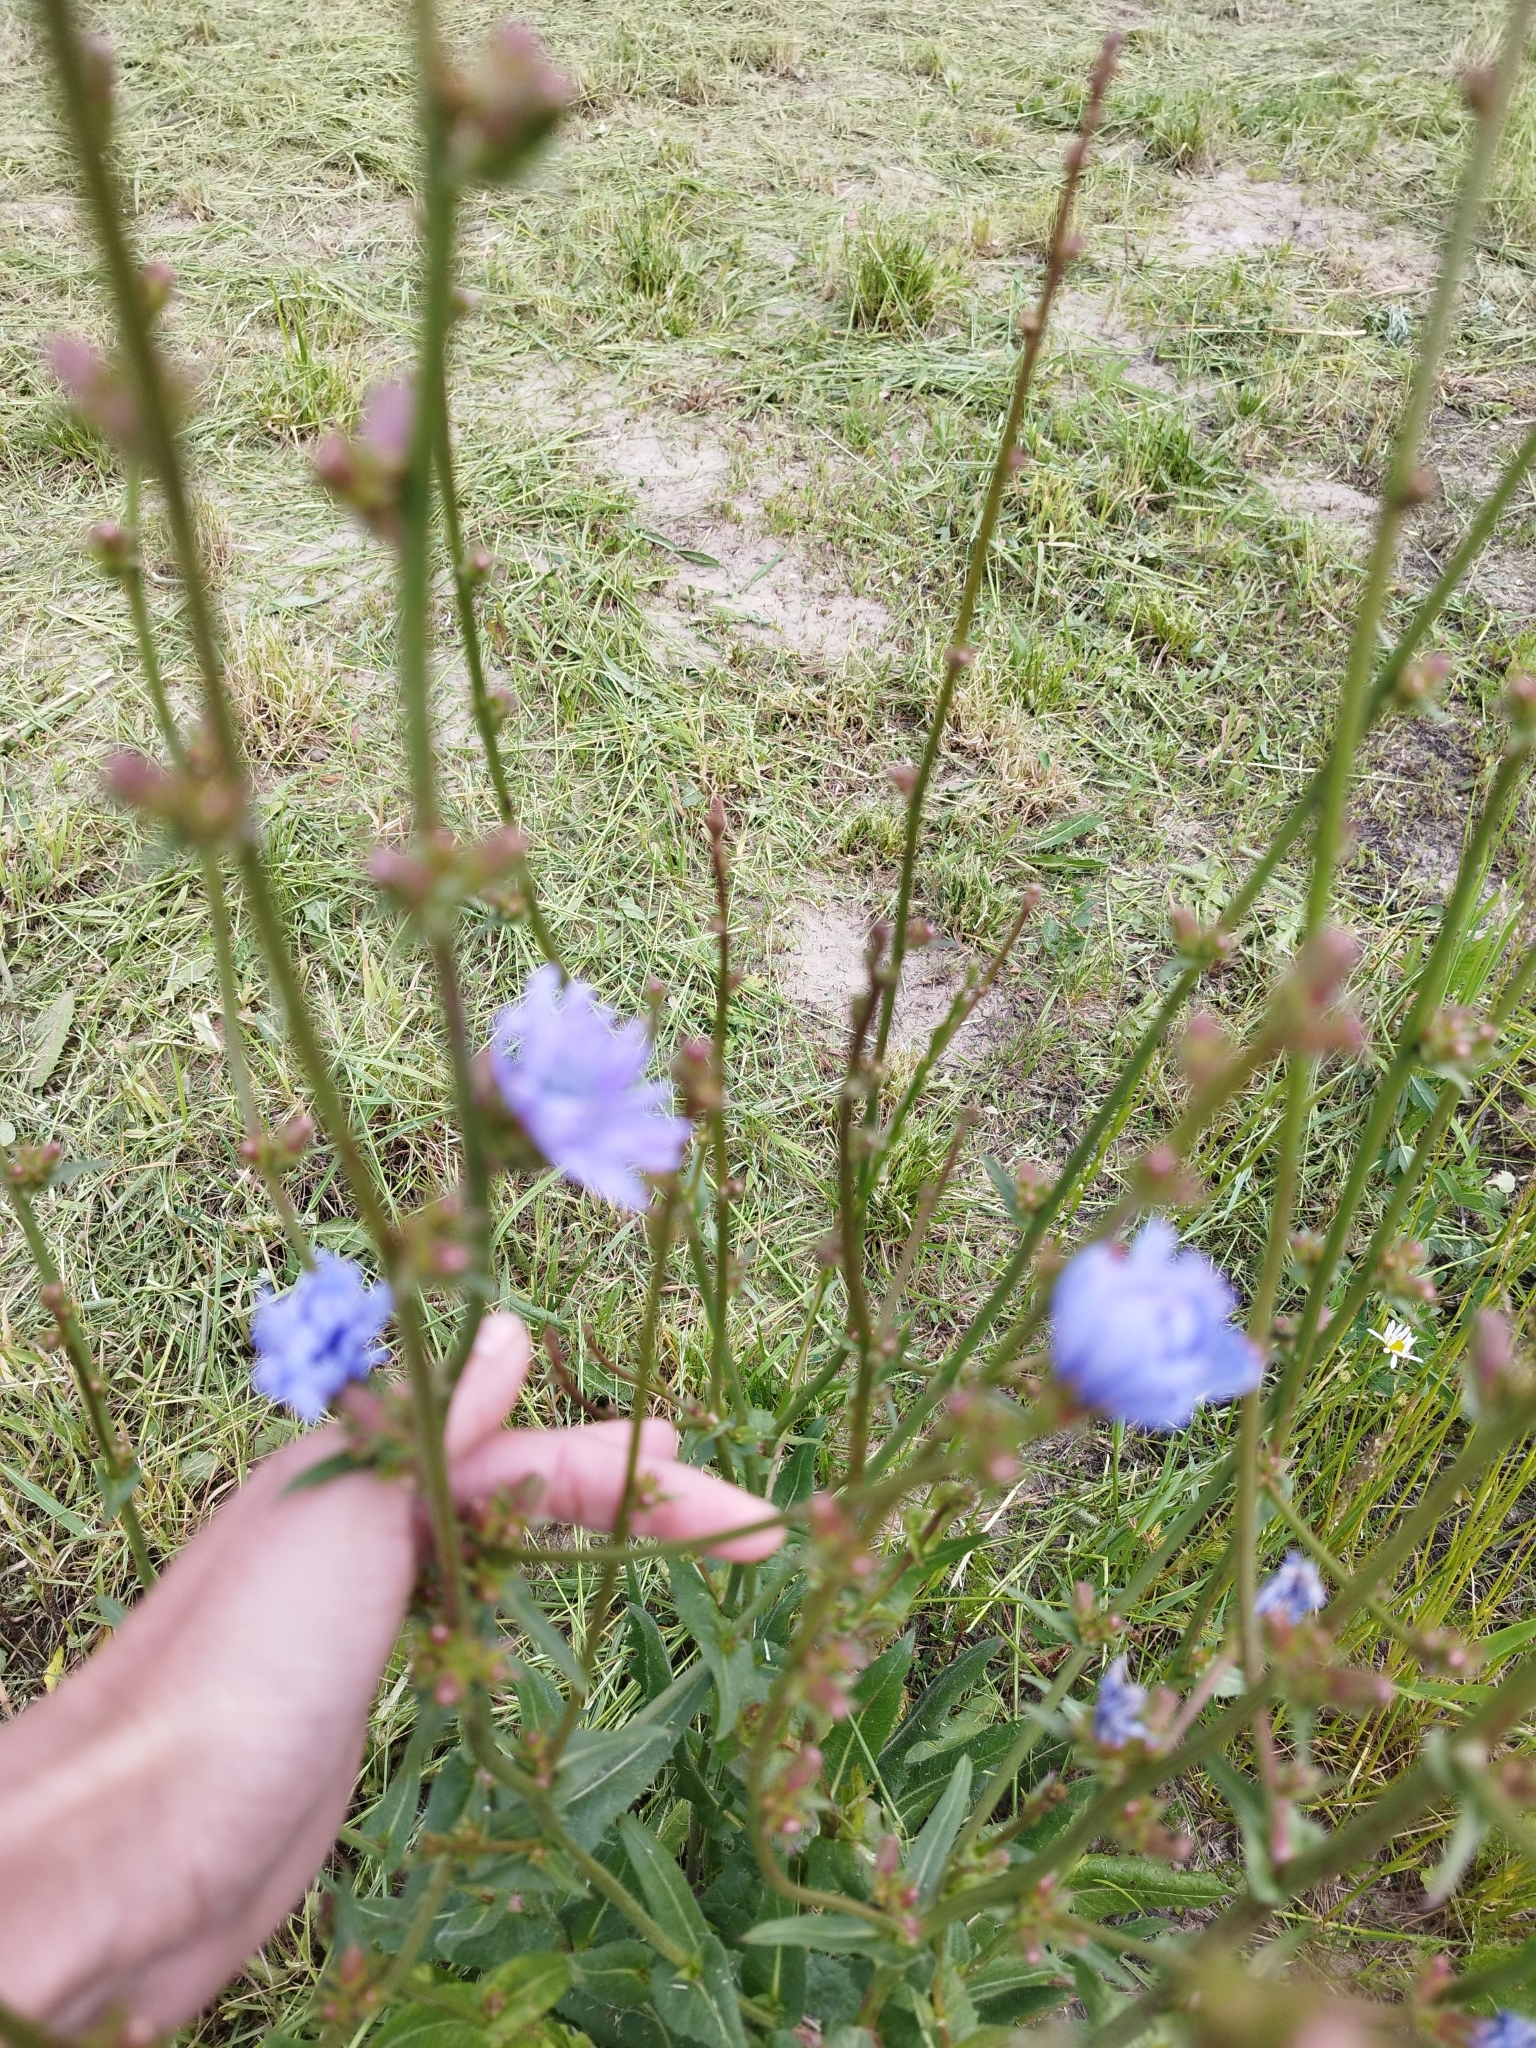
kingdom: Plantae
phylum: Tracheophyta
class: Magnoliopsida
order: Asterales
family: Asteraceae
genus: Cichorium
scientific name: Cichorium intybus
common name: Chicory
